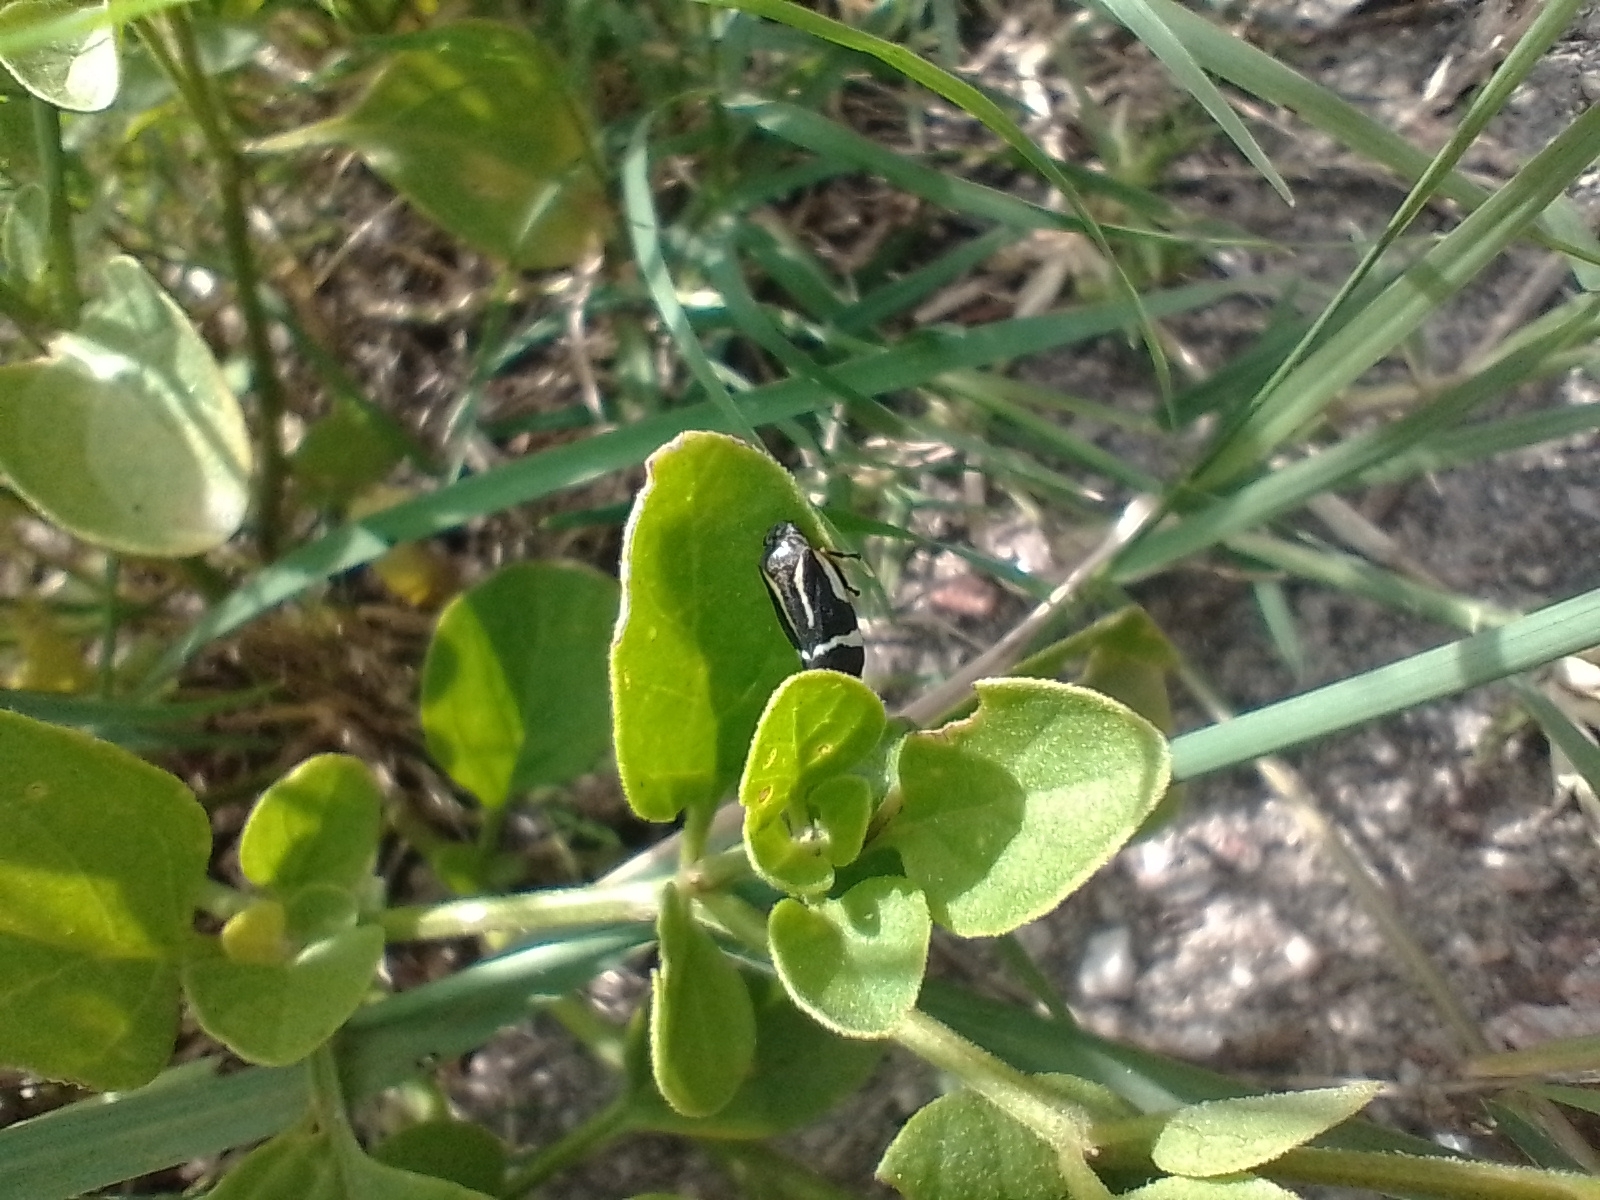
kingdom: Animalia
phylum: Arthropoda
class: Insecta
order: Hemiptera
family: Cercopidae
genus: Notozulia
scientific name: Notozulia entreriana
